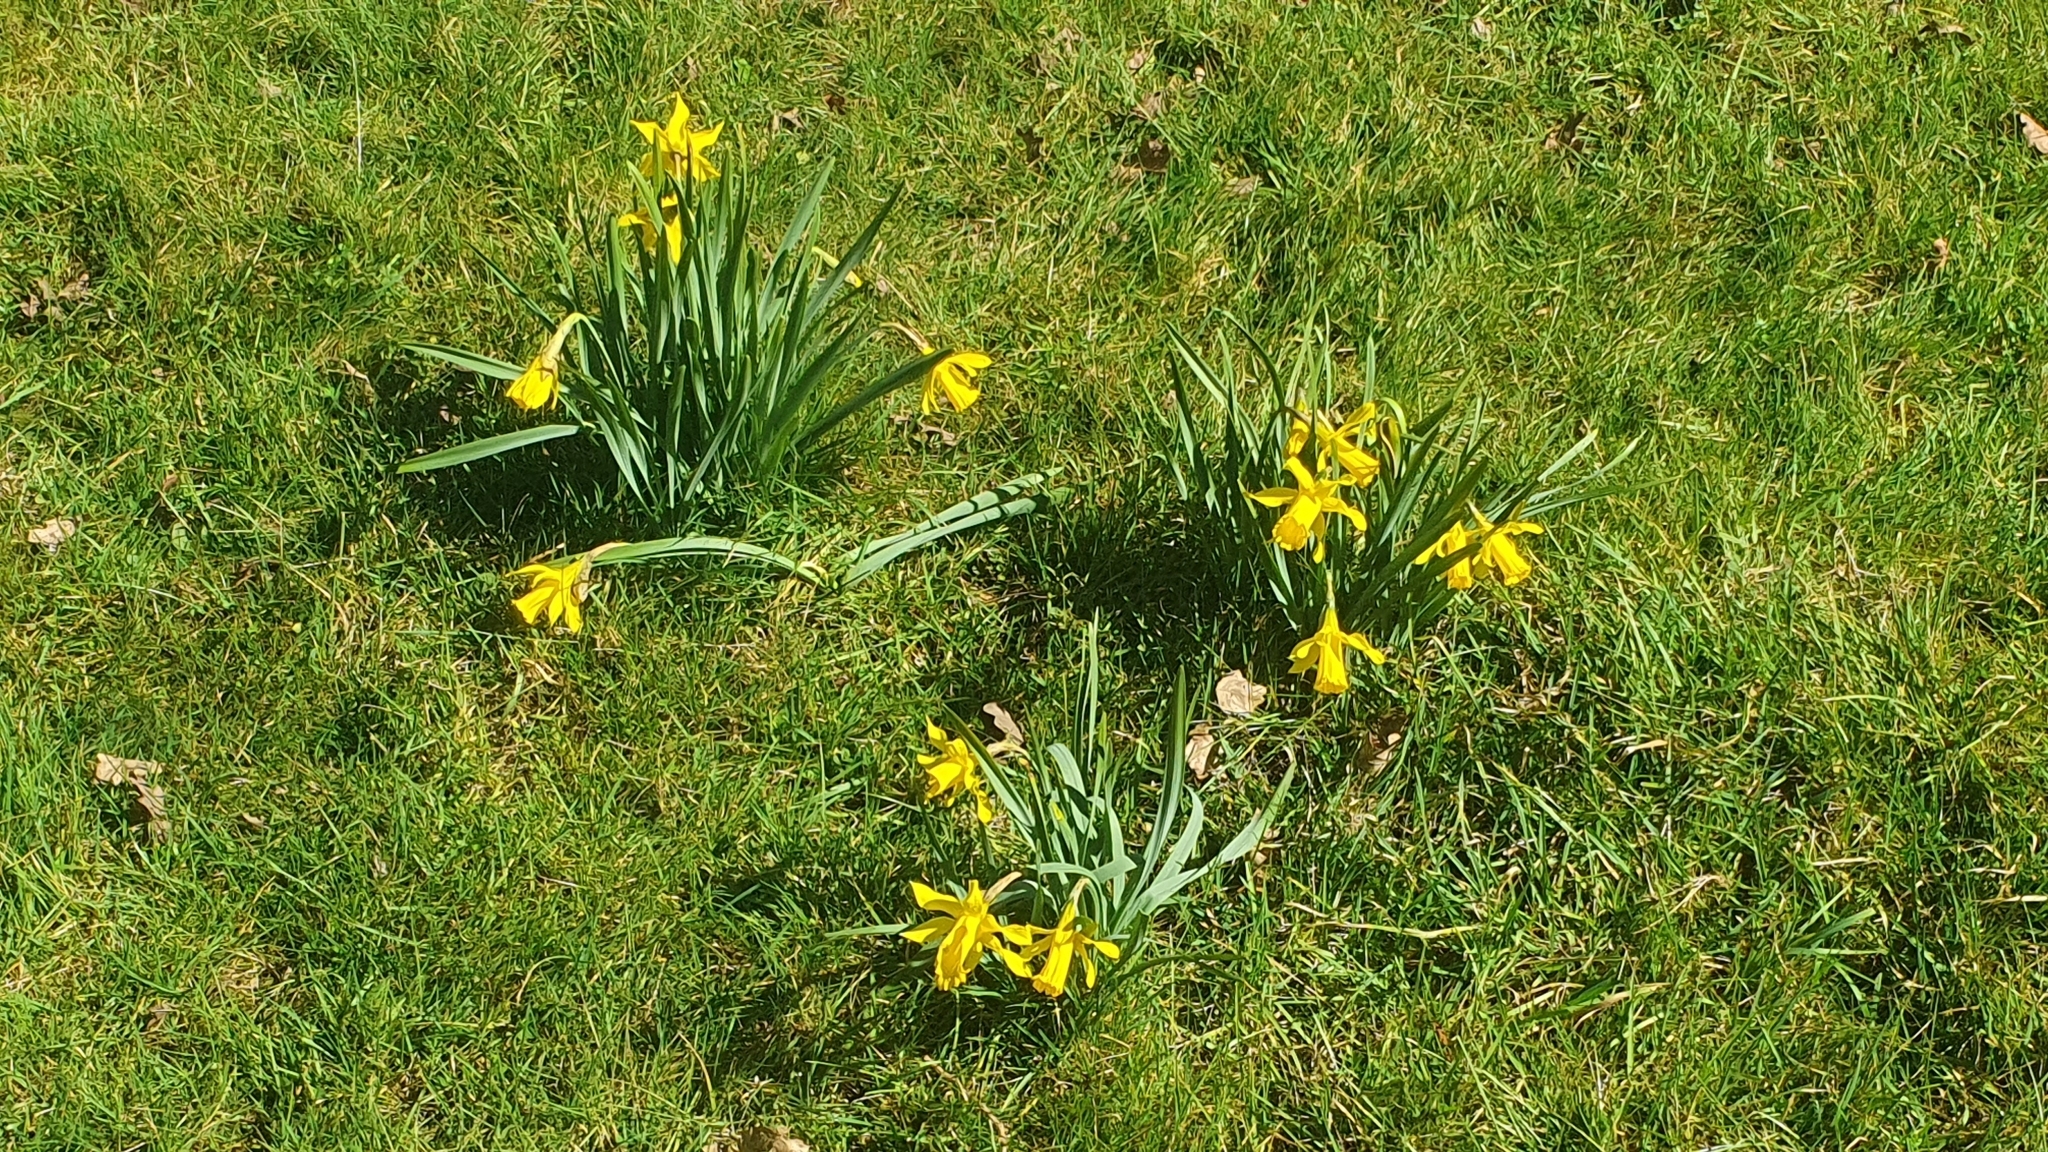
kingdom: Plantae
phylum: Tracheophyta
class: Liliopsida
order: Asparagales
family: Amaryllidaceae
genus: Narcissus
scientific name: Narcissus pseudonarcissus
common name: Daffodil
